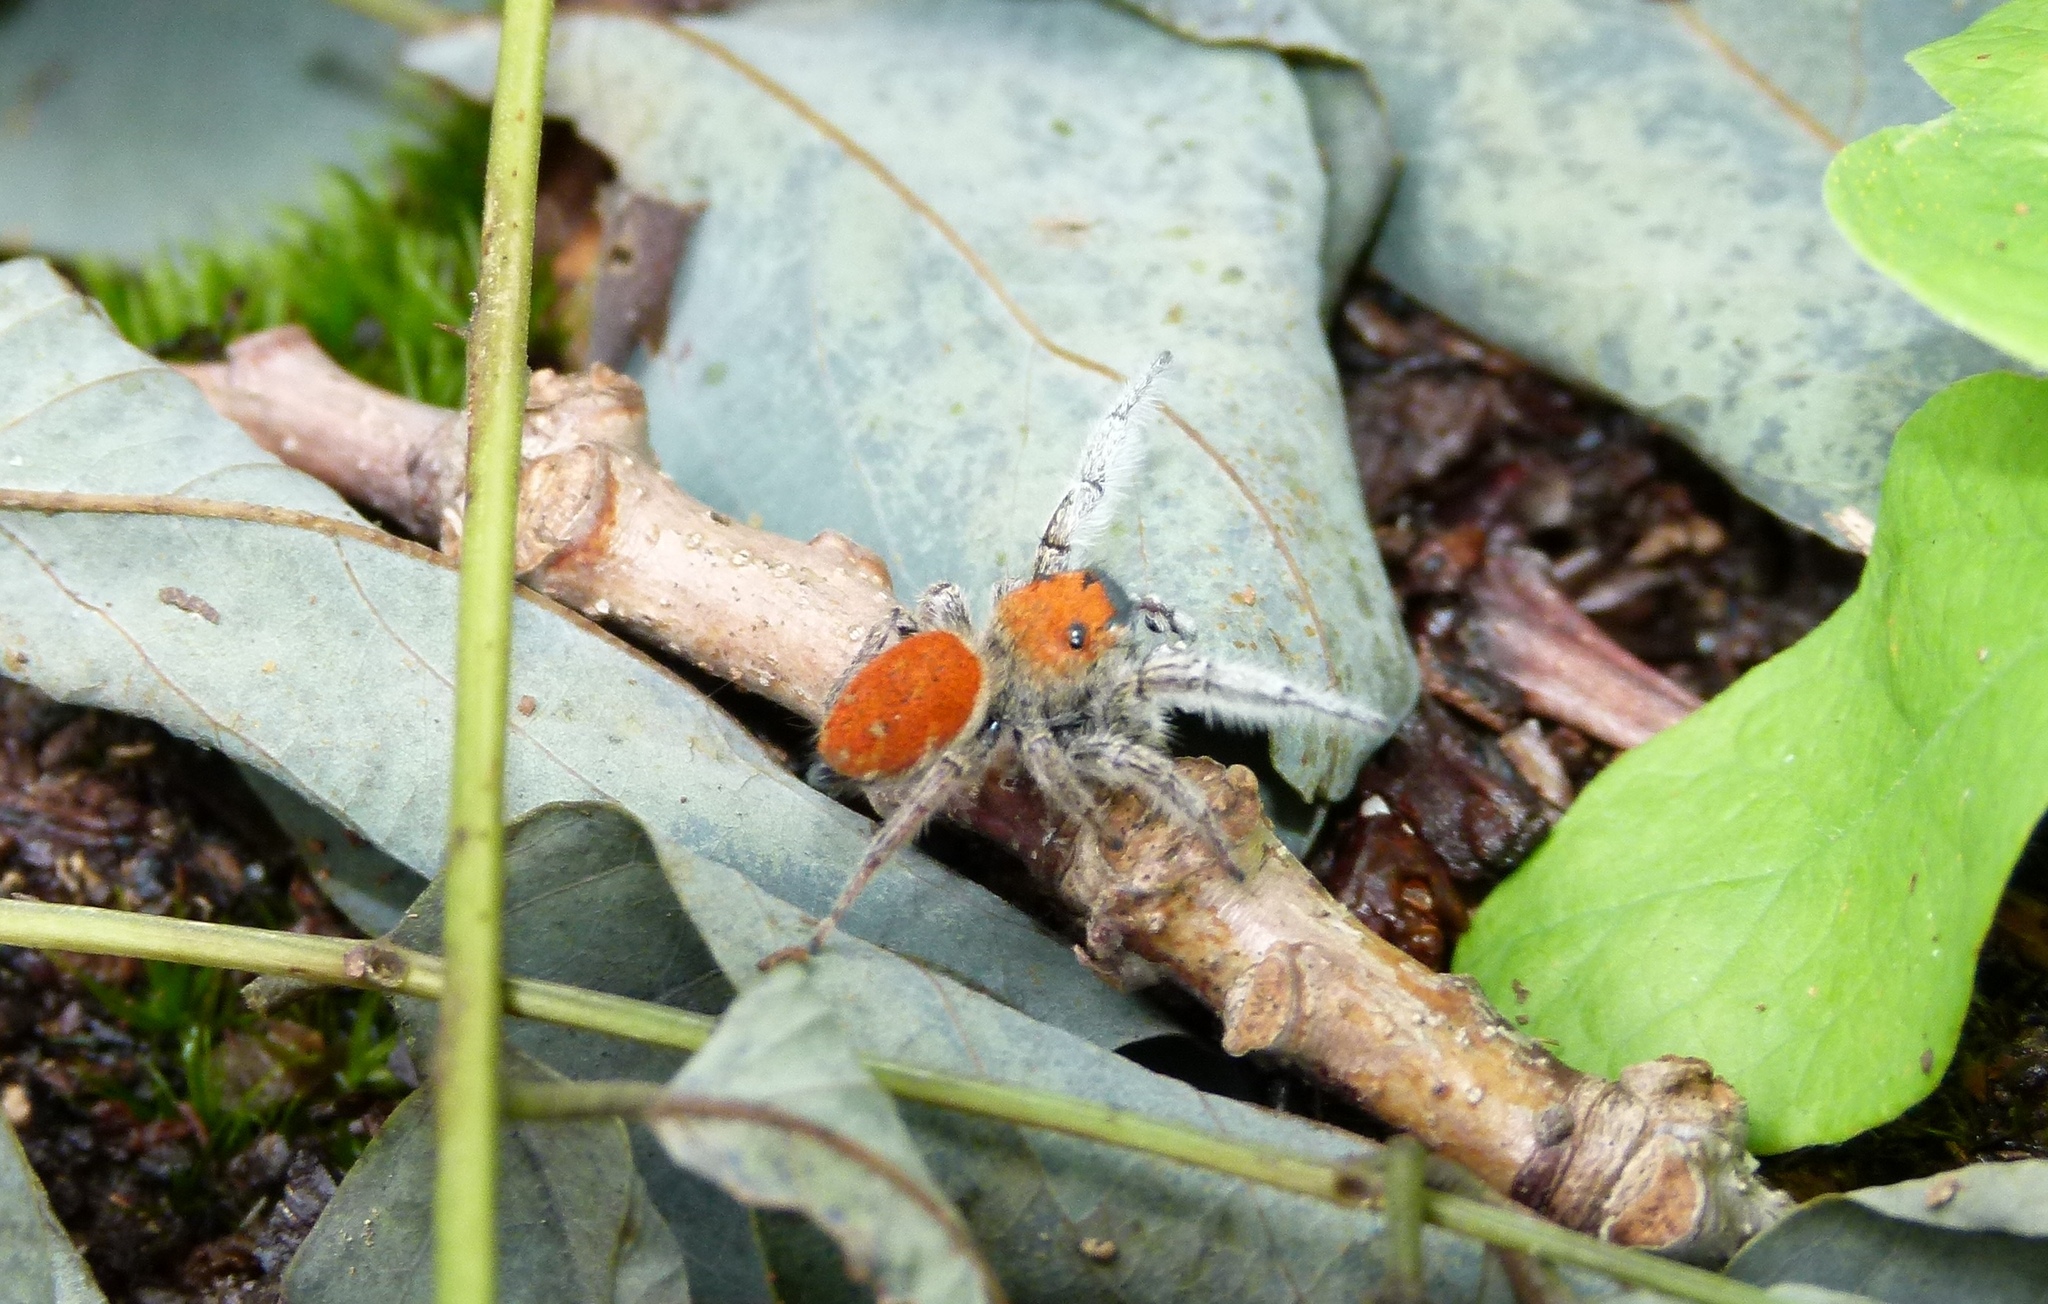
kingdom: Animalia
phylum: Arthropoda
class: Arachnida
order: Araneae
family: Salticidae
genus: Phidippus
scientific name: Phidippus whitmani
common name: Whitman's jumping spider
